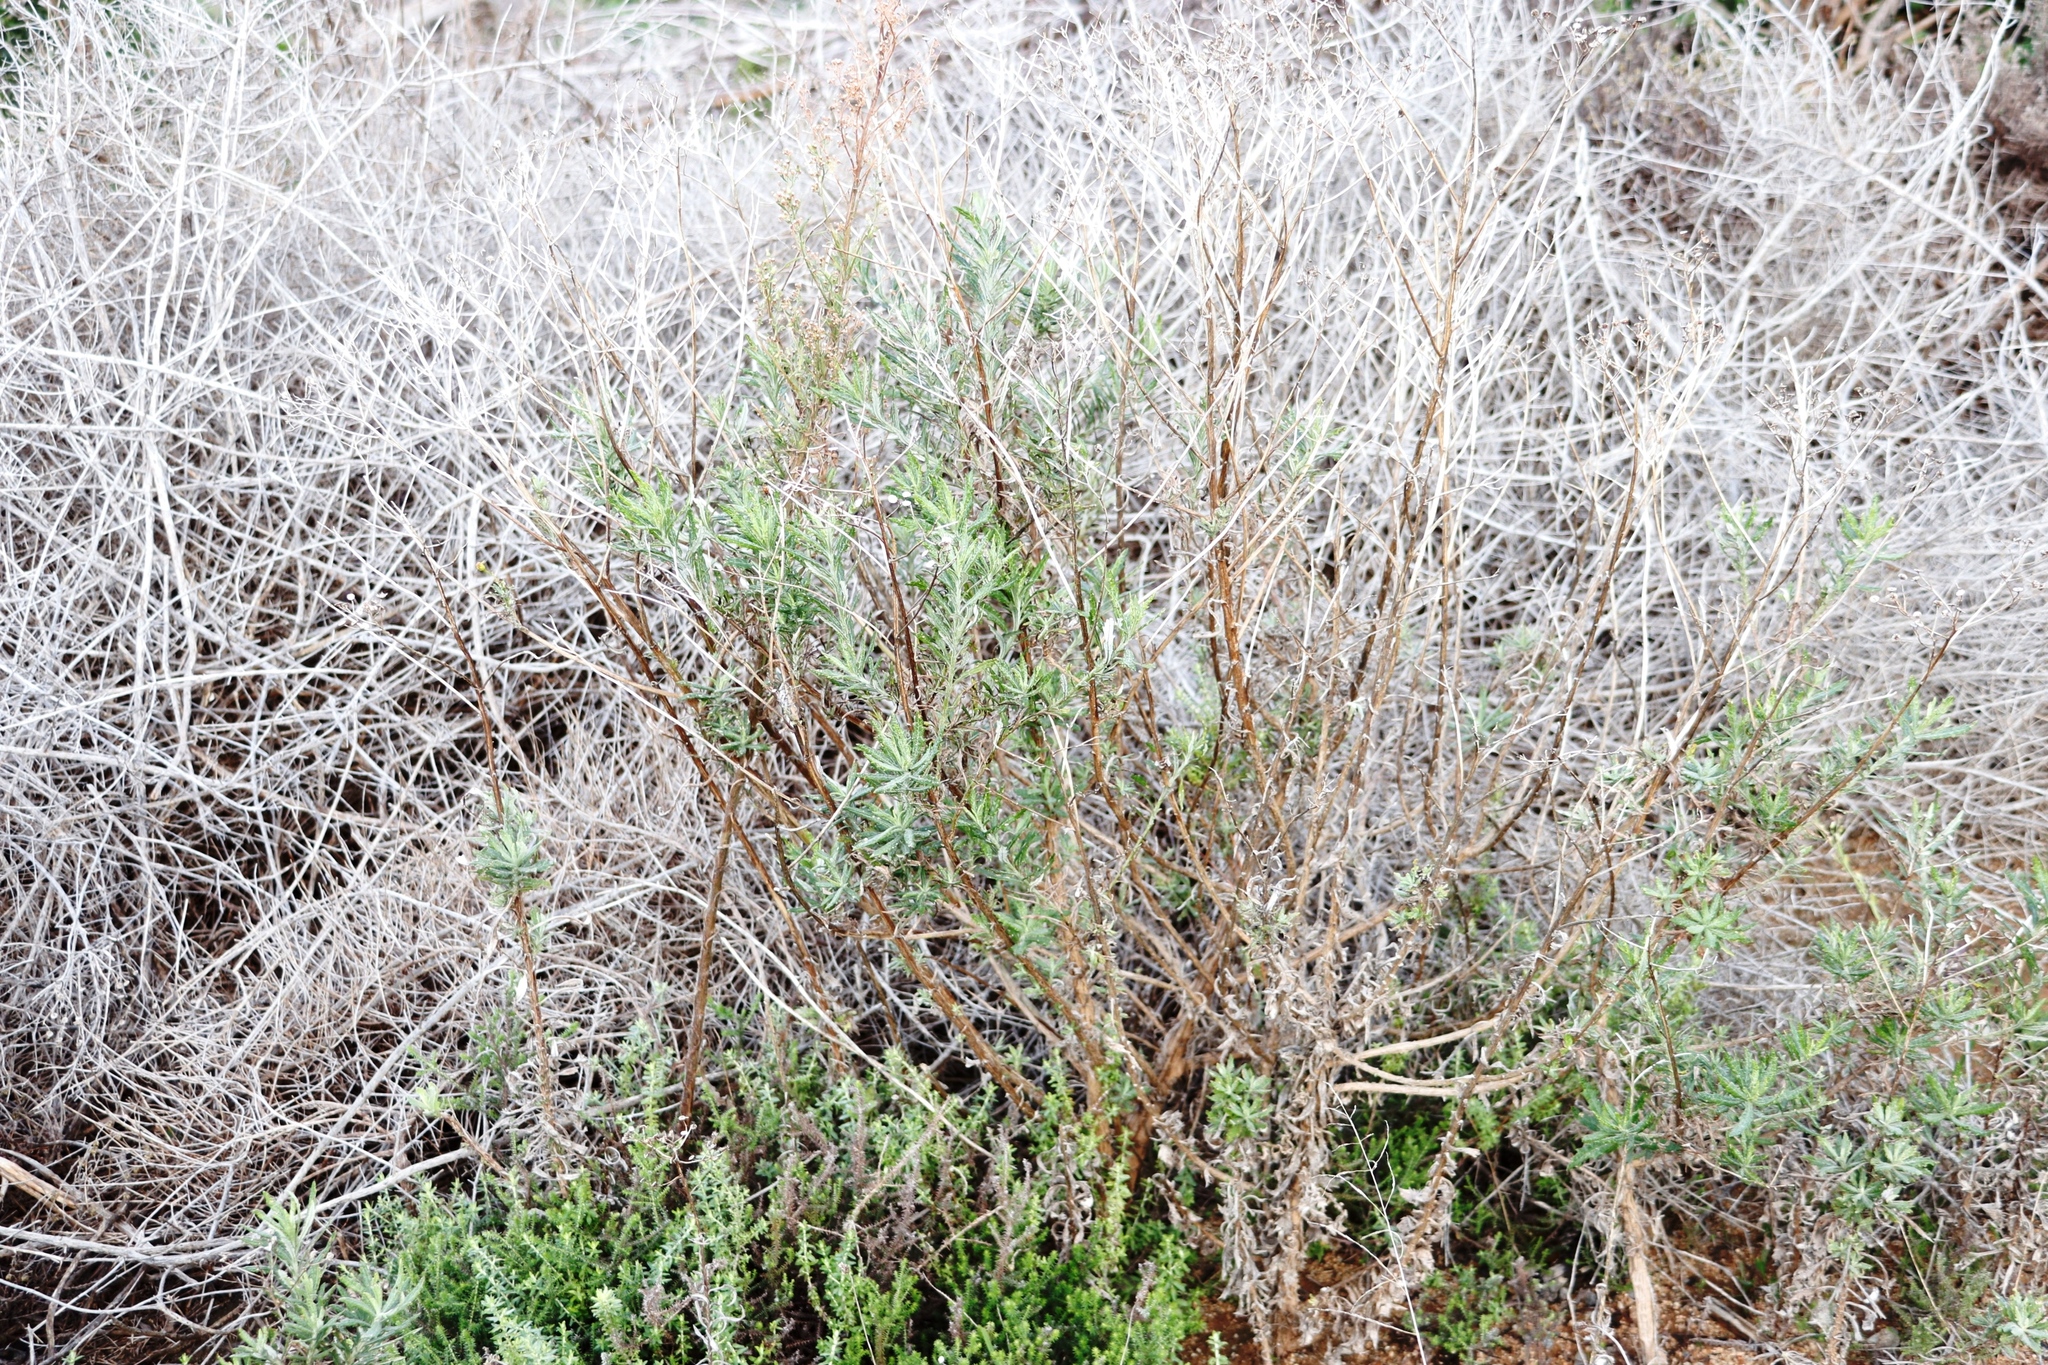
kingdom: Plantae
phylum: Tracheophyta
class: Magnoliopsida
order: Asterales
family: Asteraceae
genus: Senecio
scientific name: Senecio pterophorus
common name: Shoddy ragwort
